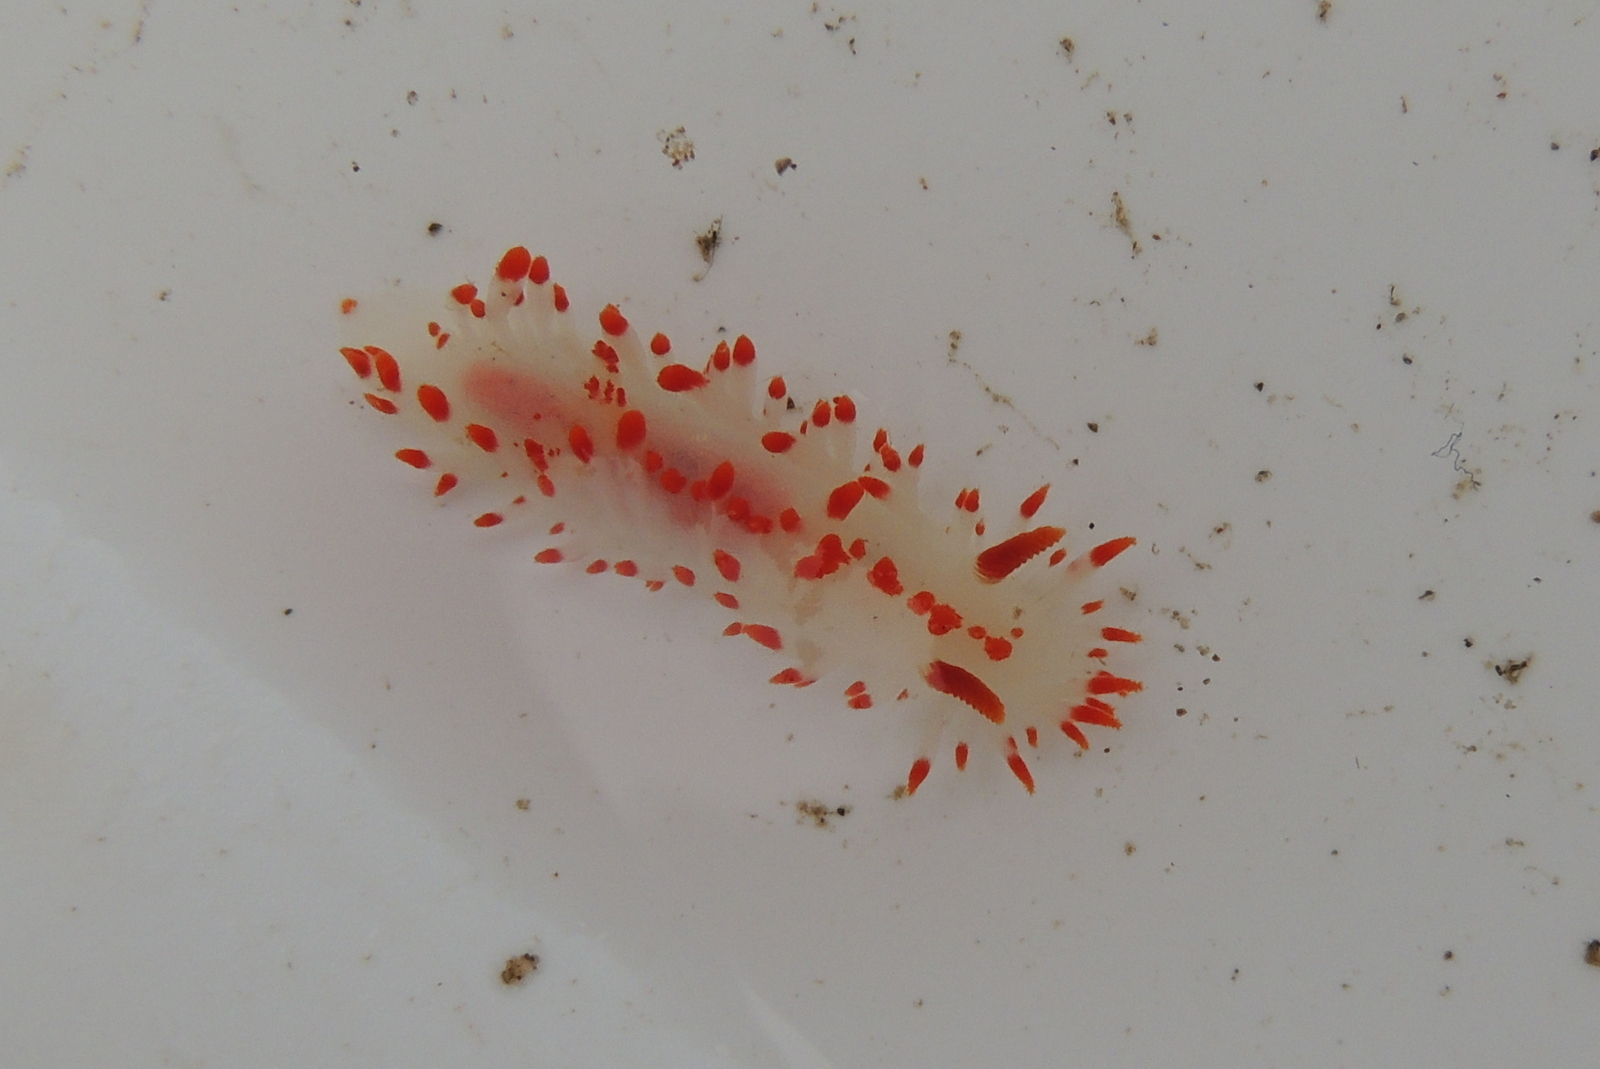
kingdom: Animalia
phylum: Mollusca
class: Gastropoda
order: Nudibranchia
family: Polyceridae
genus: Limacia
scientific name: Limacia mcdonaldi
